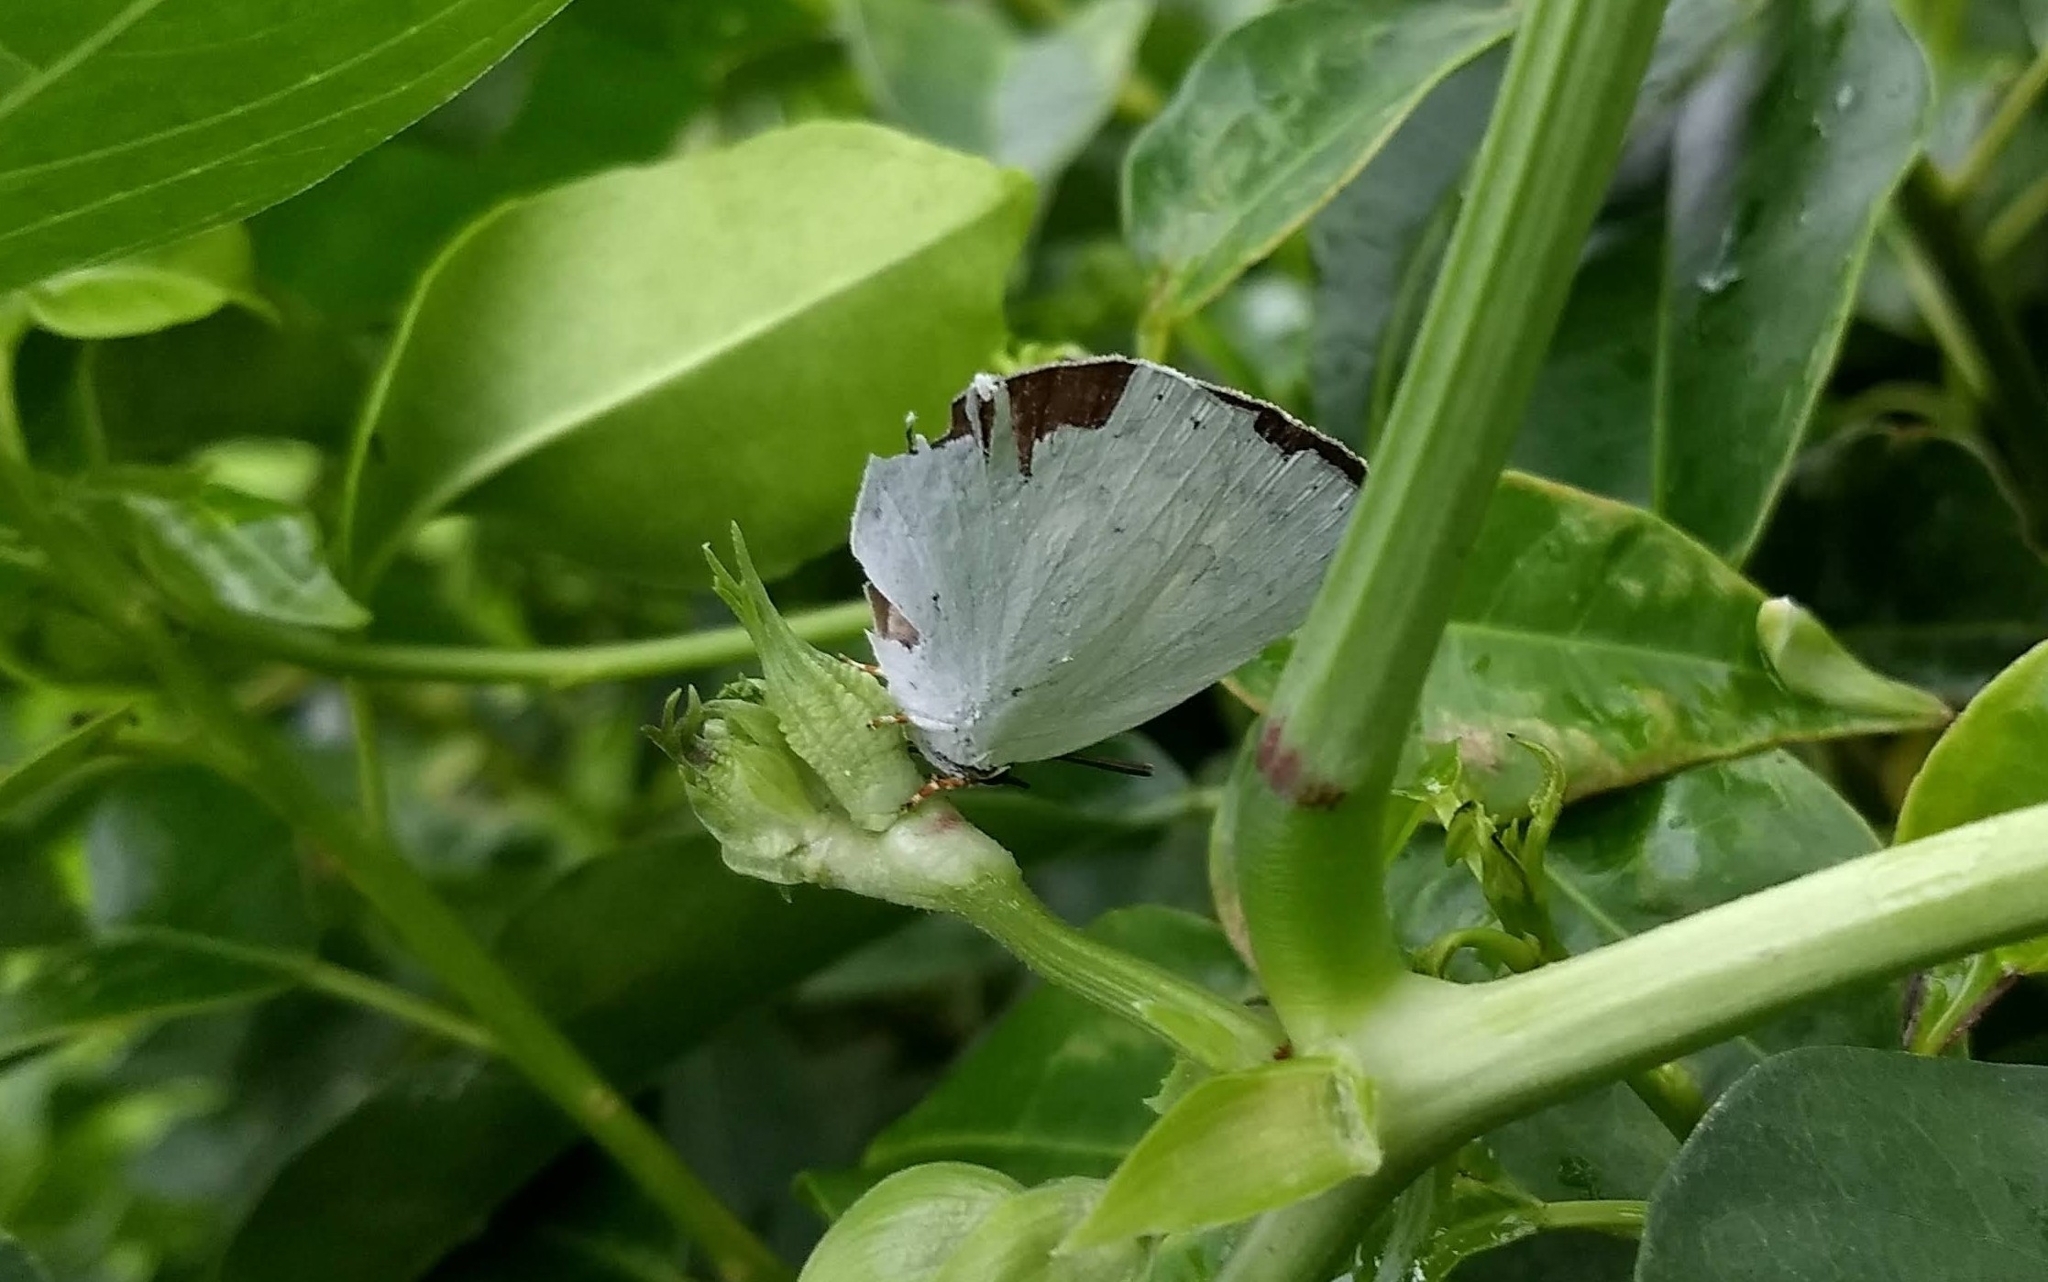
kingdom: Animalia
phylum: Arthropoda
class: Insecta
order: Lepidoptera
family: Lycaenidae
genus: Curetis
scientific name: Curetis thetis
